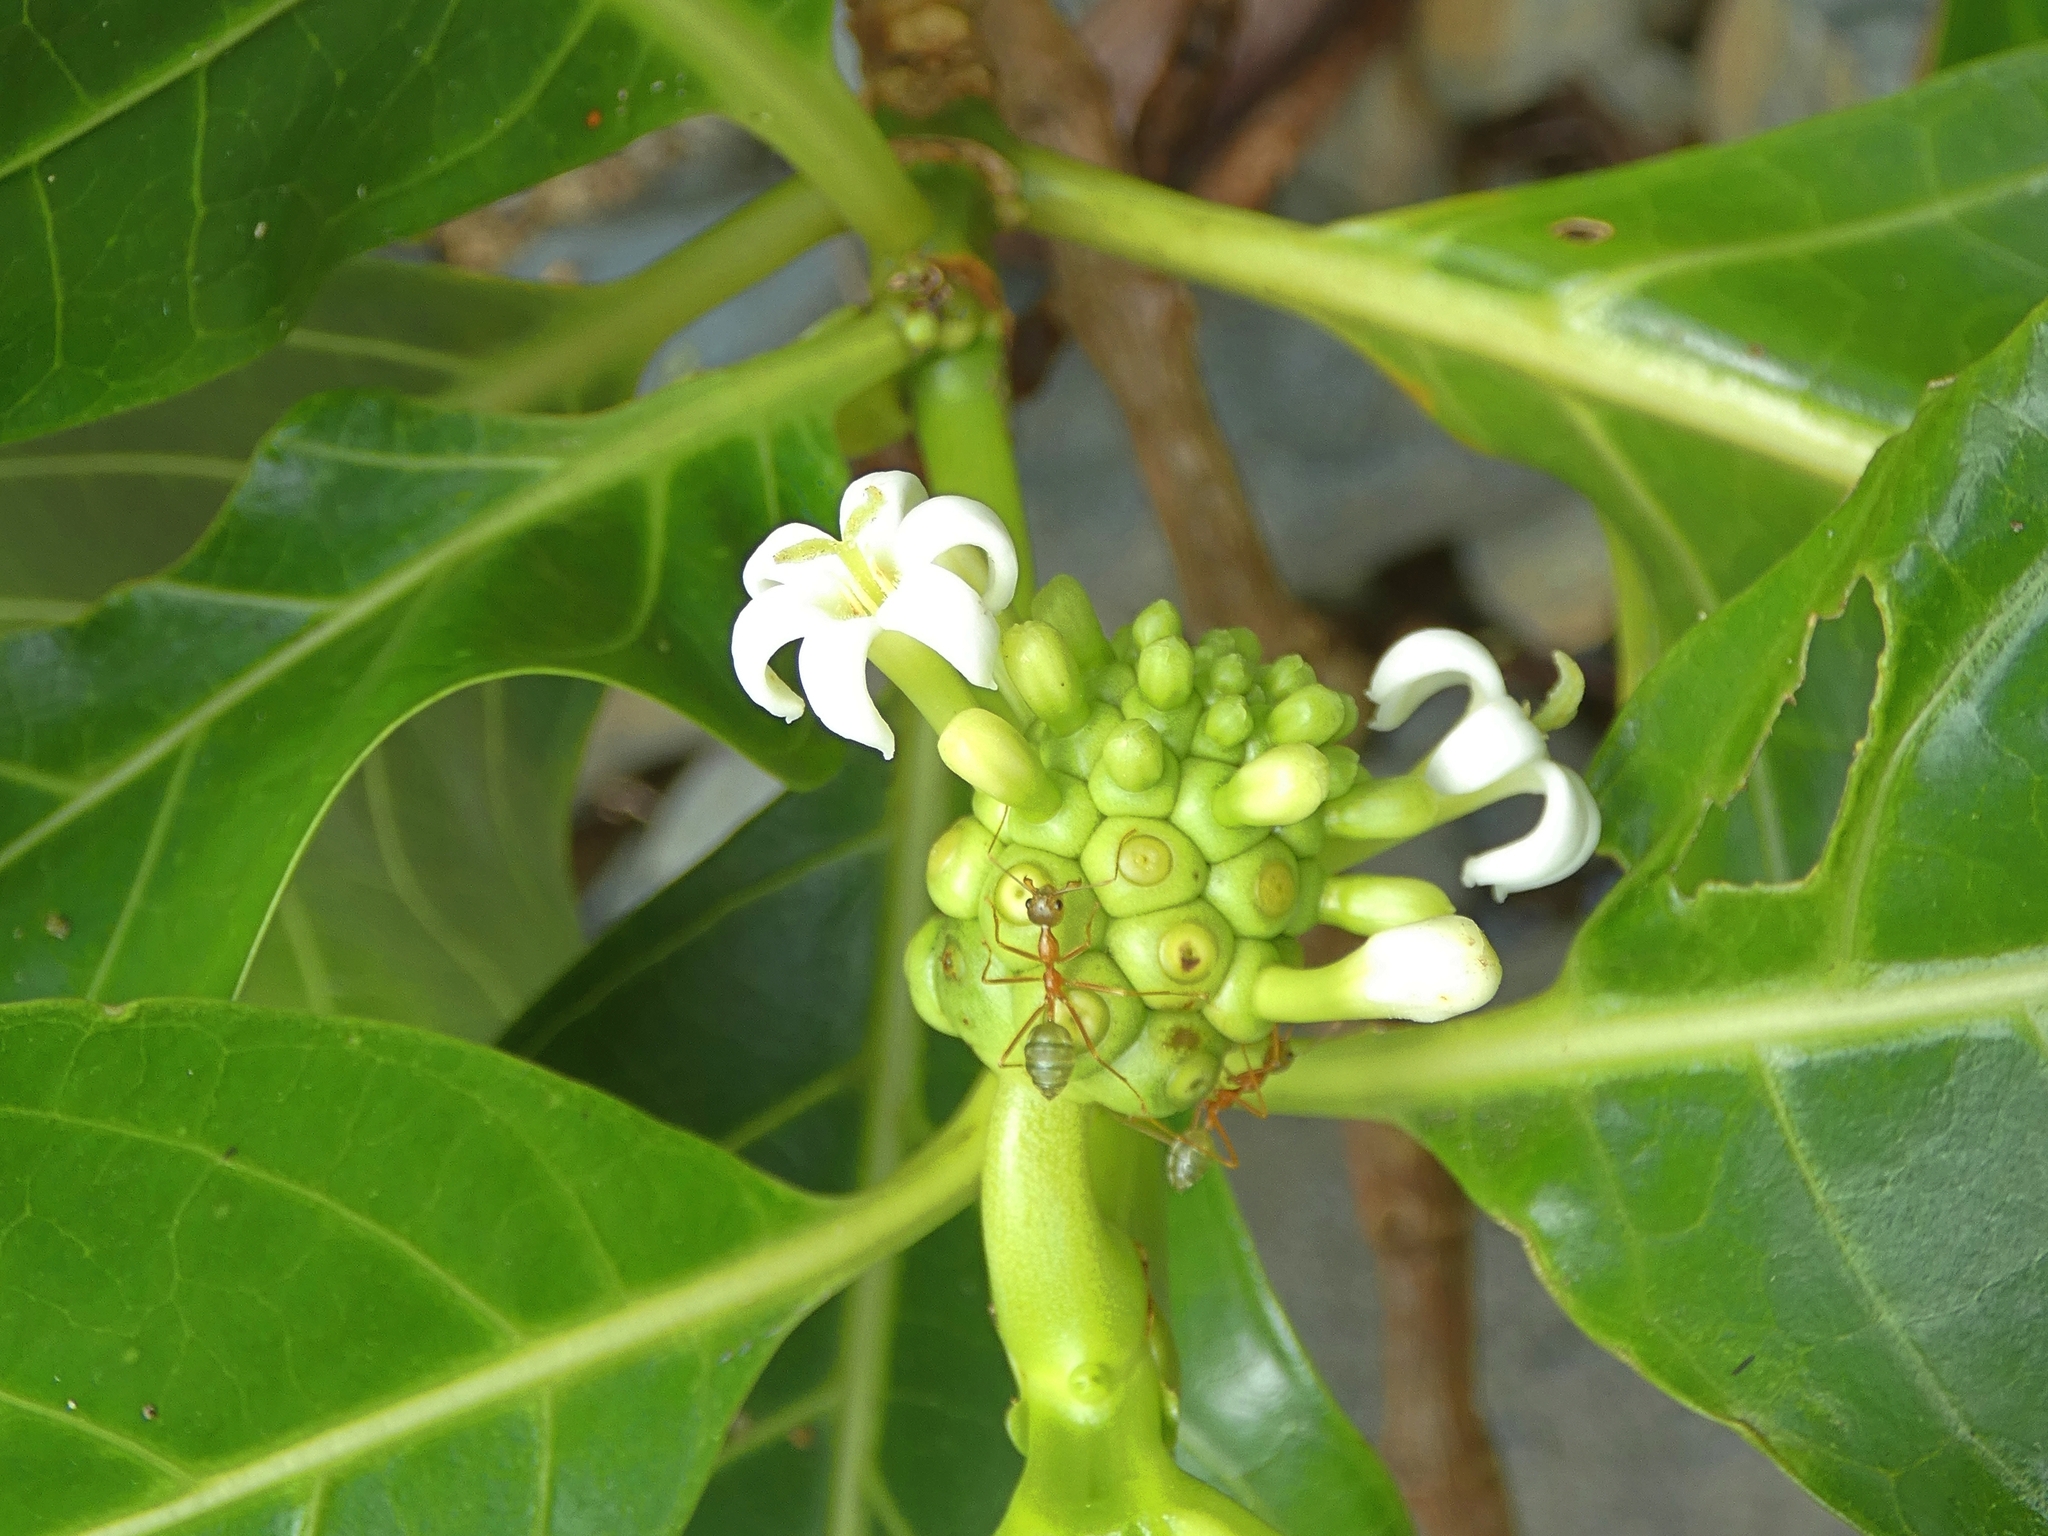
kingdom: Plantae
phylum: Tracheophyta
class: Magnoliopsida
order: Gentianales
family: Rubiaceae
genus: Morinda
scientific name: Morinda citrifolia
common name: Indian-mulberry
